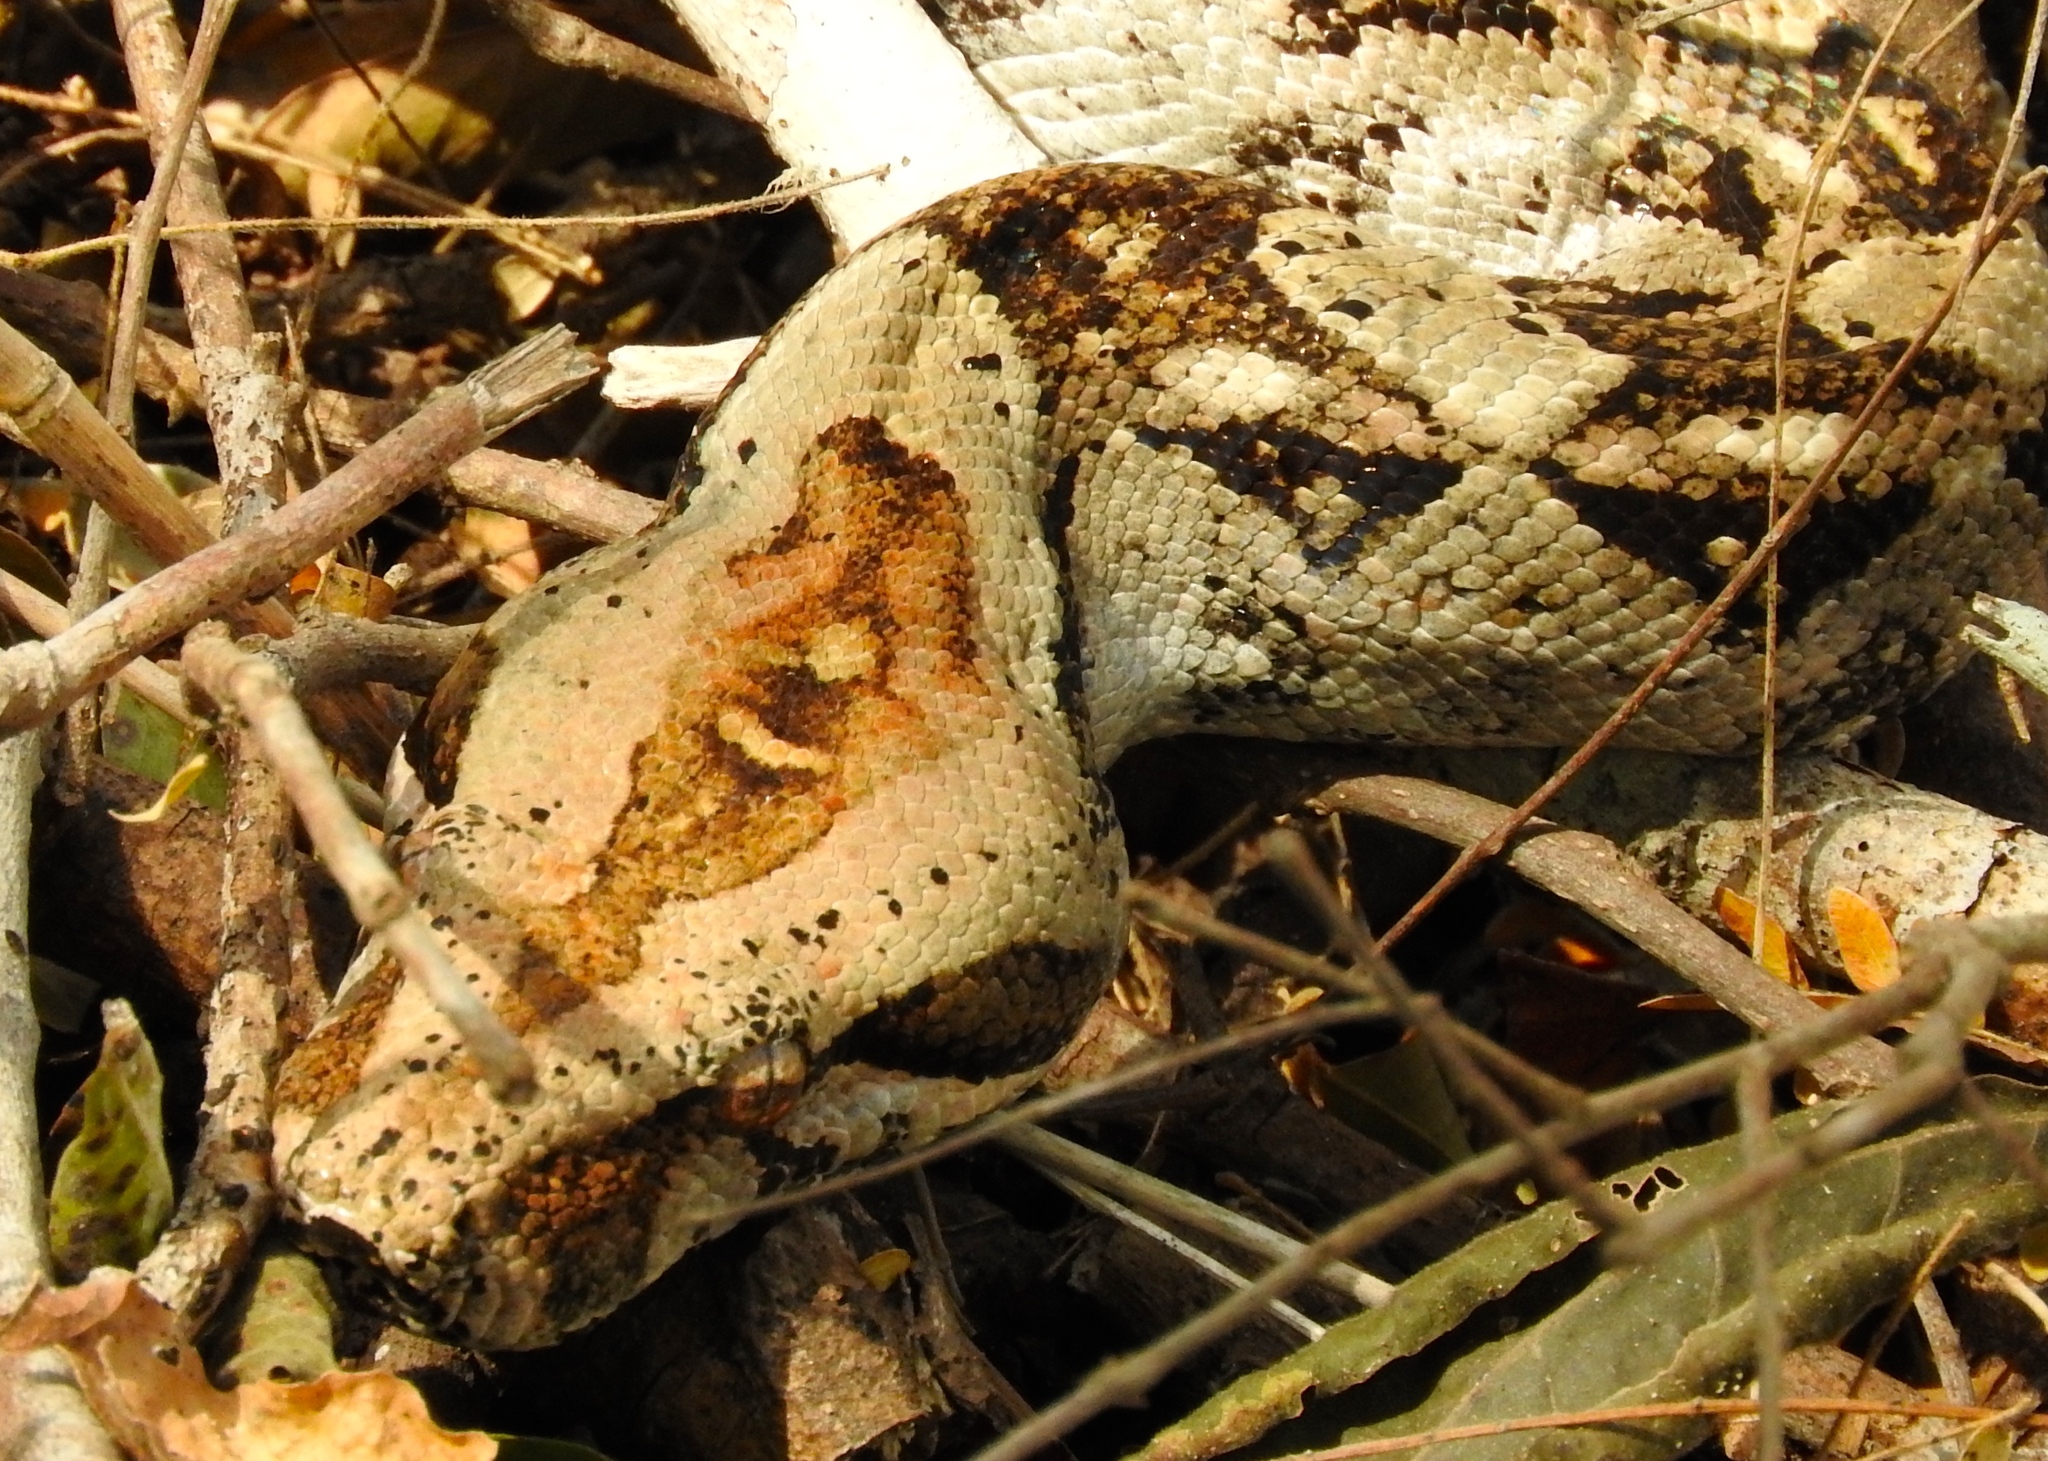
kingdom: Animalia
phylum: Chordata
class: Squamata
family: Boidae
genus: Boa
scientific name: Boa
